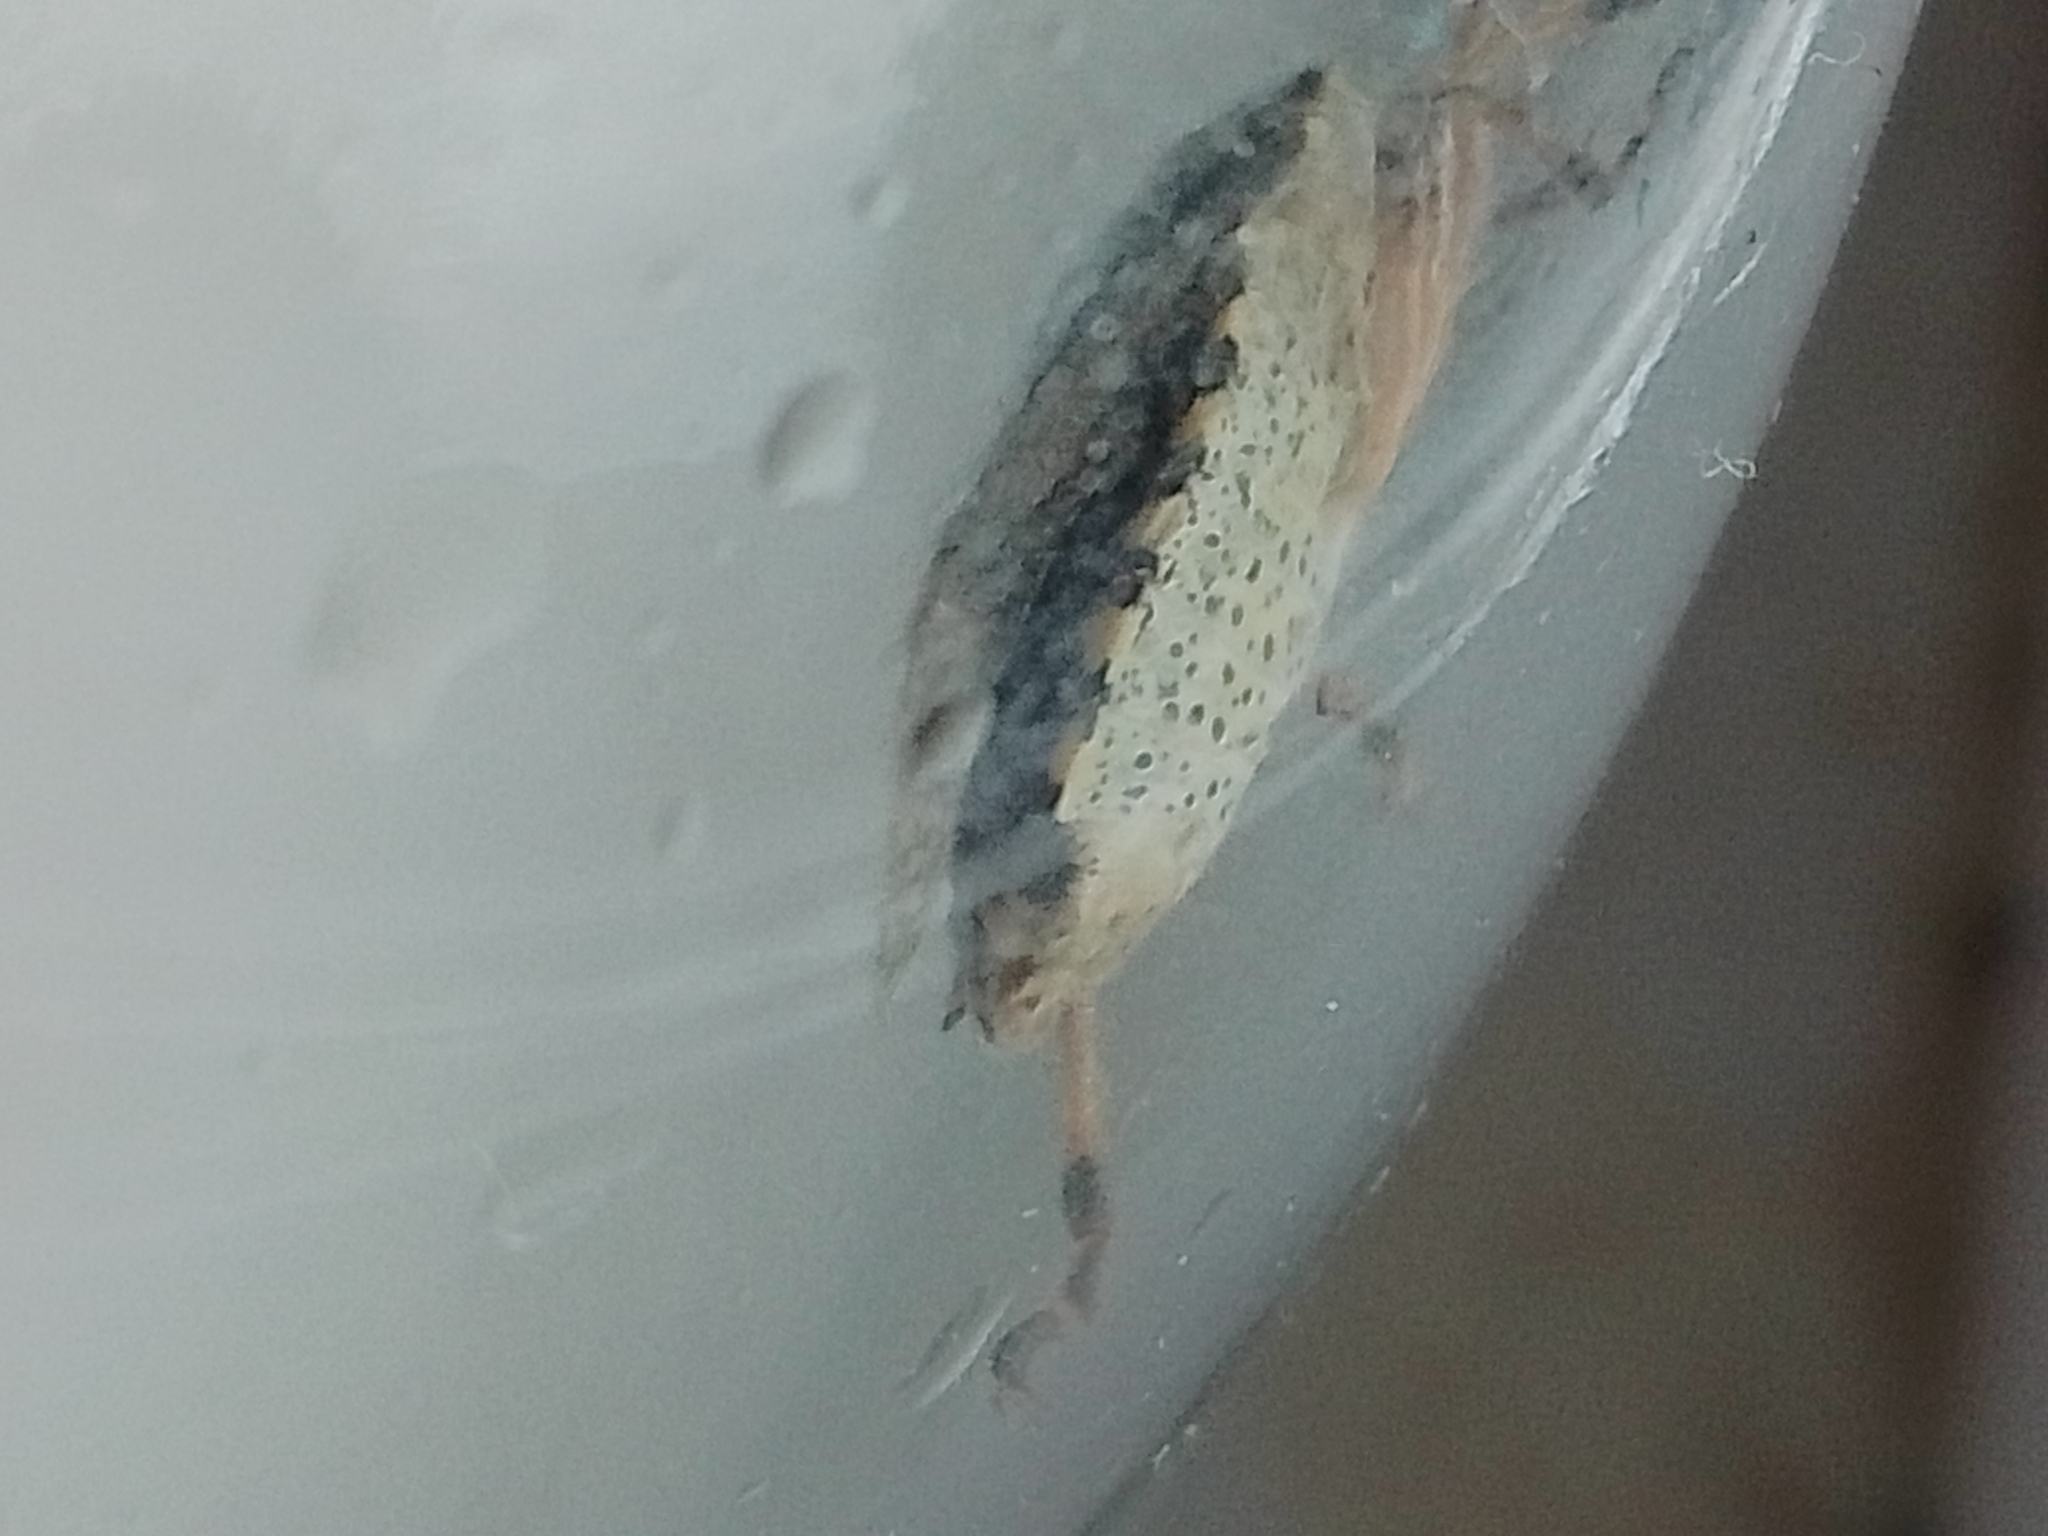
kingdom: Animalia
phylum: Arthropoda
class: Insecta
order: Hemiptera
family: Pentatomidae
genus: Rhaphigaster
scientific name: Rhaphigaster nebulosa
